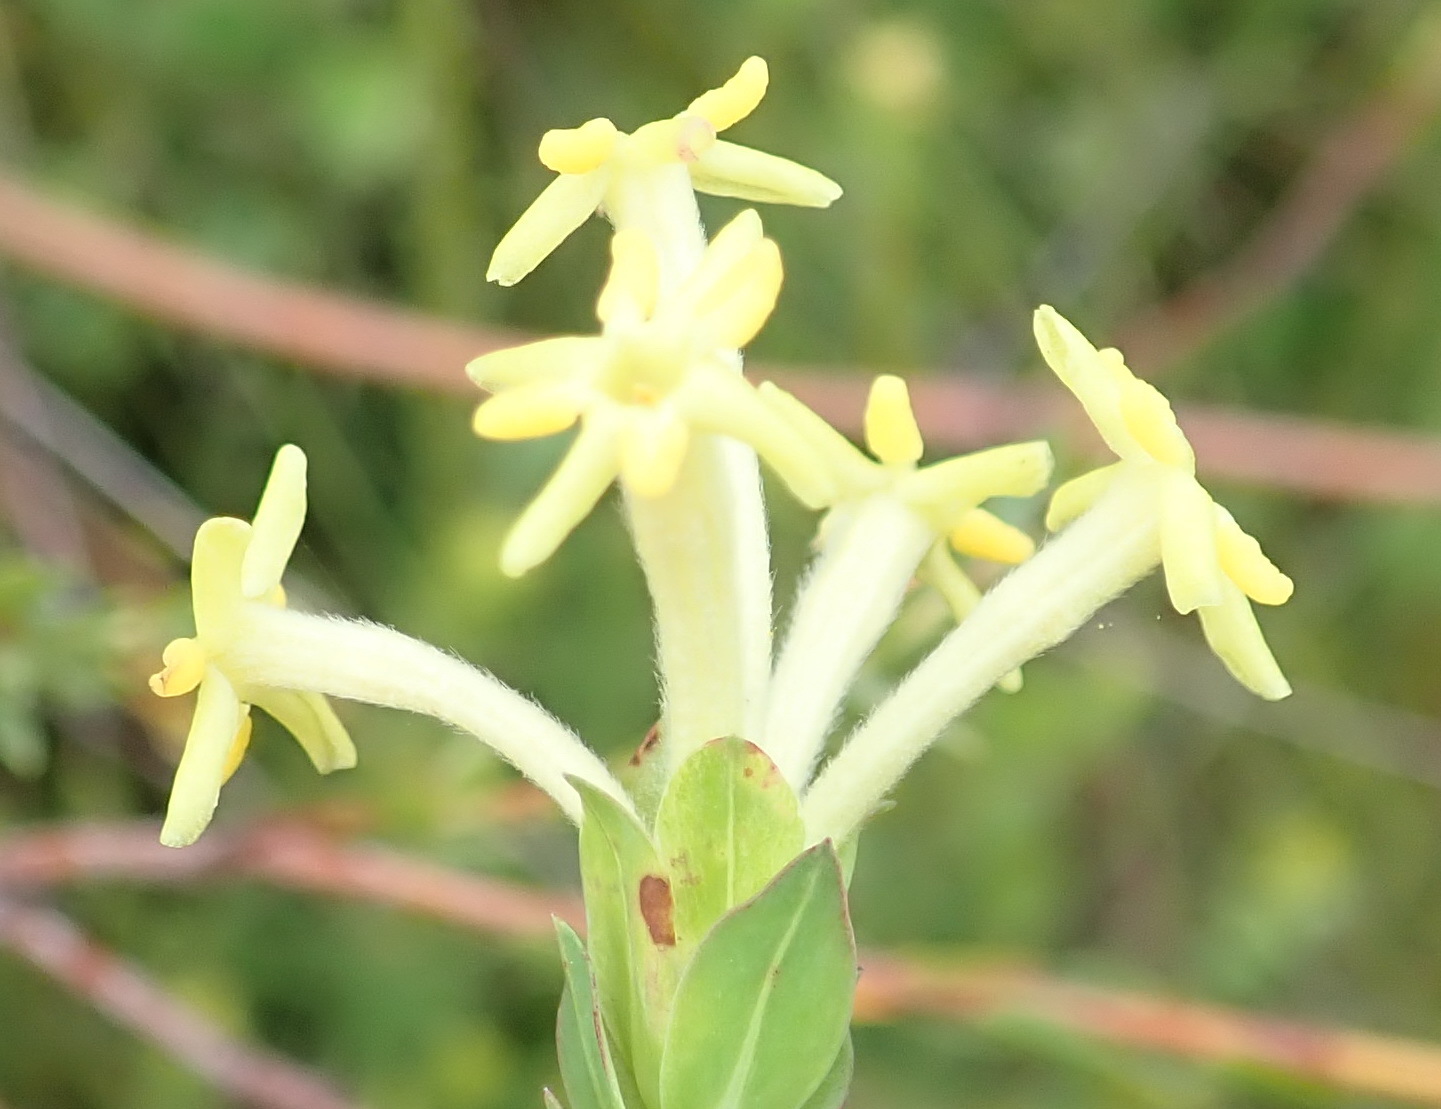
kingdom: Plantae
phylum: Tracheophyta
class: Magnoliopsida
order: Malvales
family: Thymelaeaceae
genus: Gnidia
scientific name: Gnidia oppositifolia
